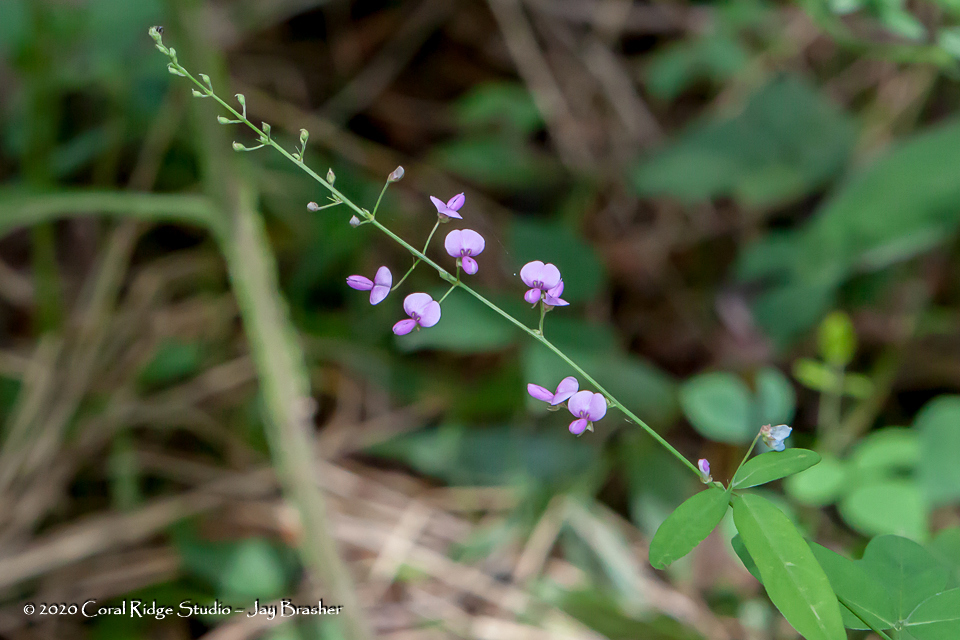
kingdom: Plantae
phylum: Tracheophyta
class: Magnoliopsida
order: Fabales
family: Fabaceae
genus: Desmodium
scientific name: Desmodium glabellum
